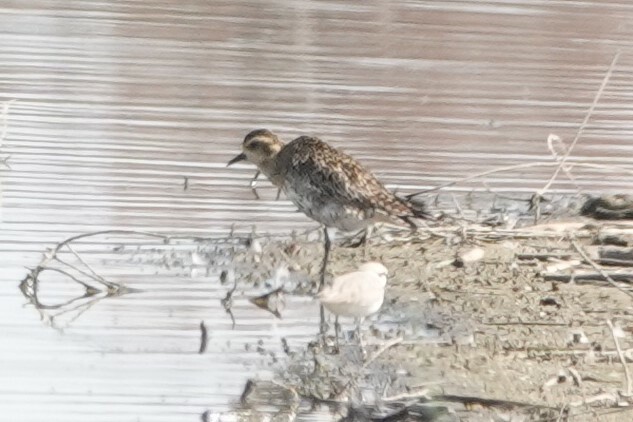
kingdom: Animalia
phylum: Chordata
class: Aves
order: Charadriiformes
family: Charadriidae
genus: Pluvialis
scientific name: Pluvialis fulva
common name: Pacific golden plover
